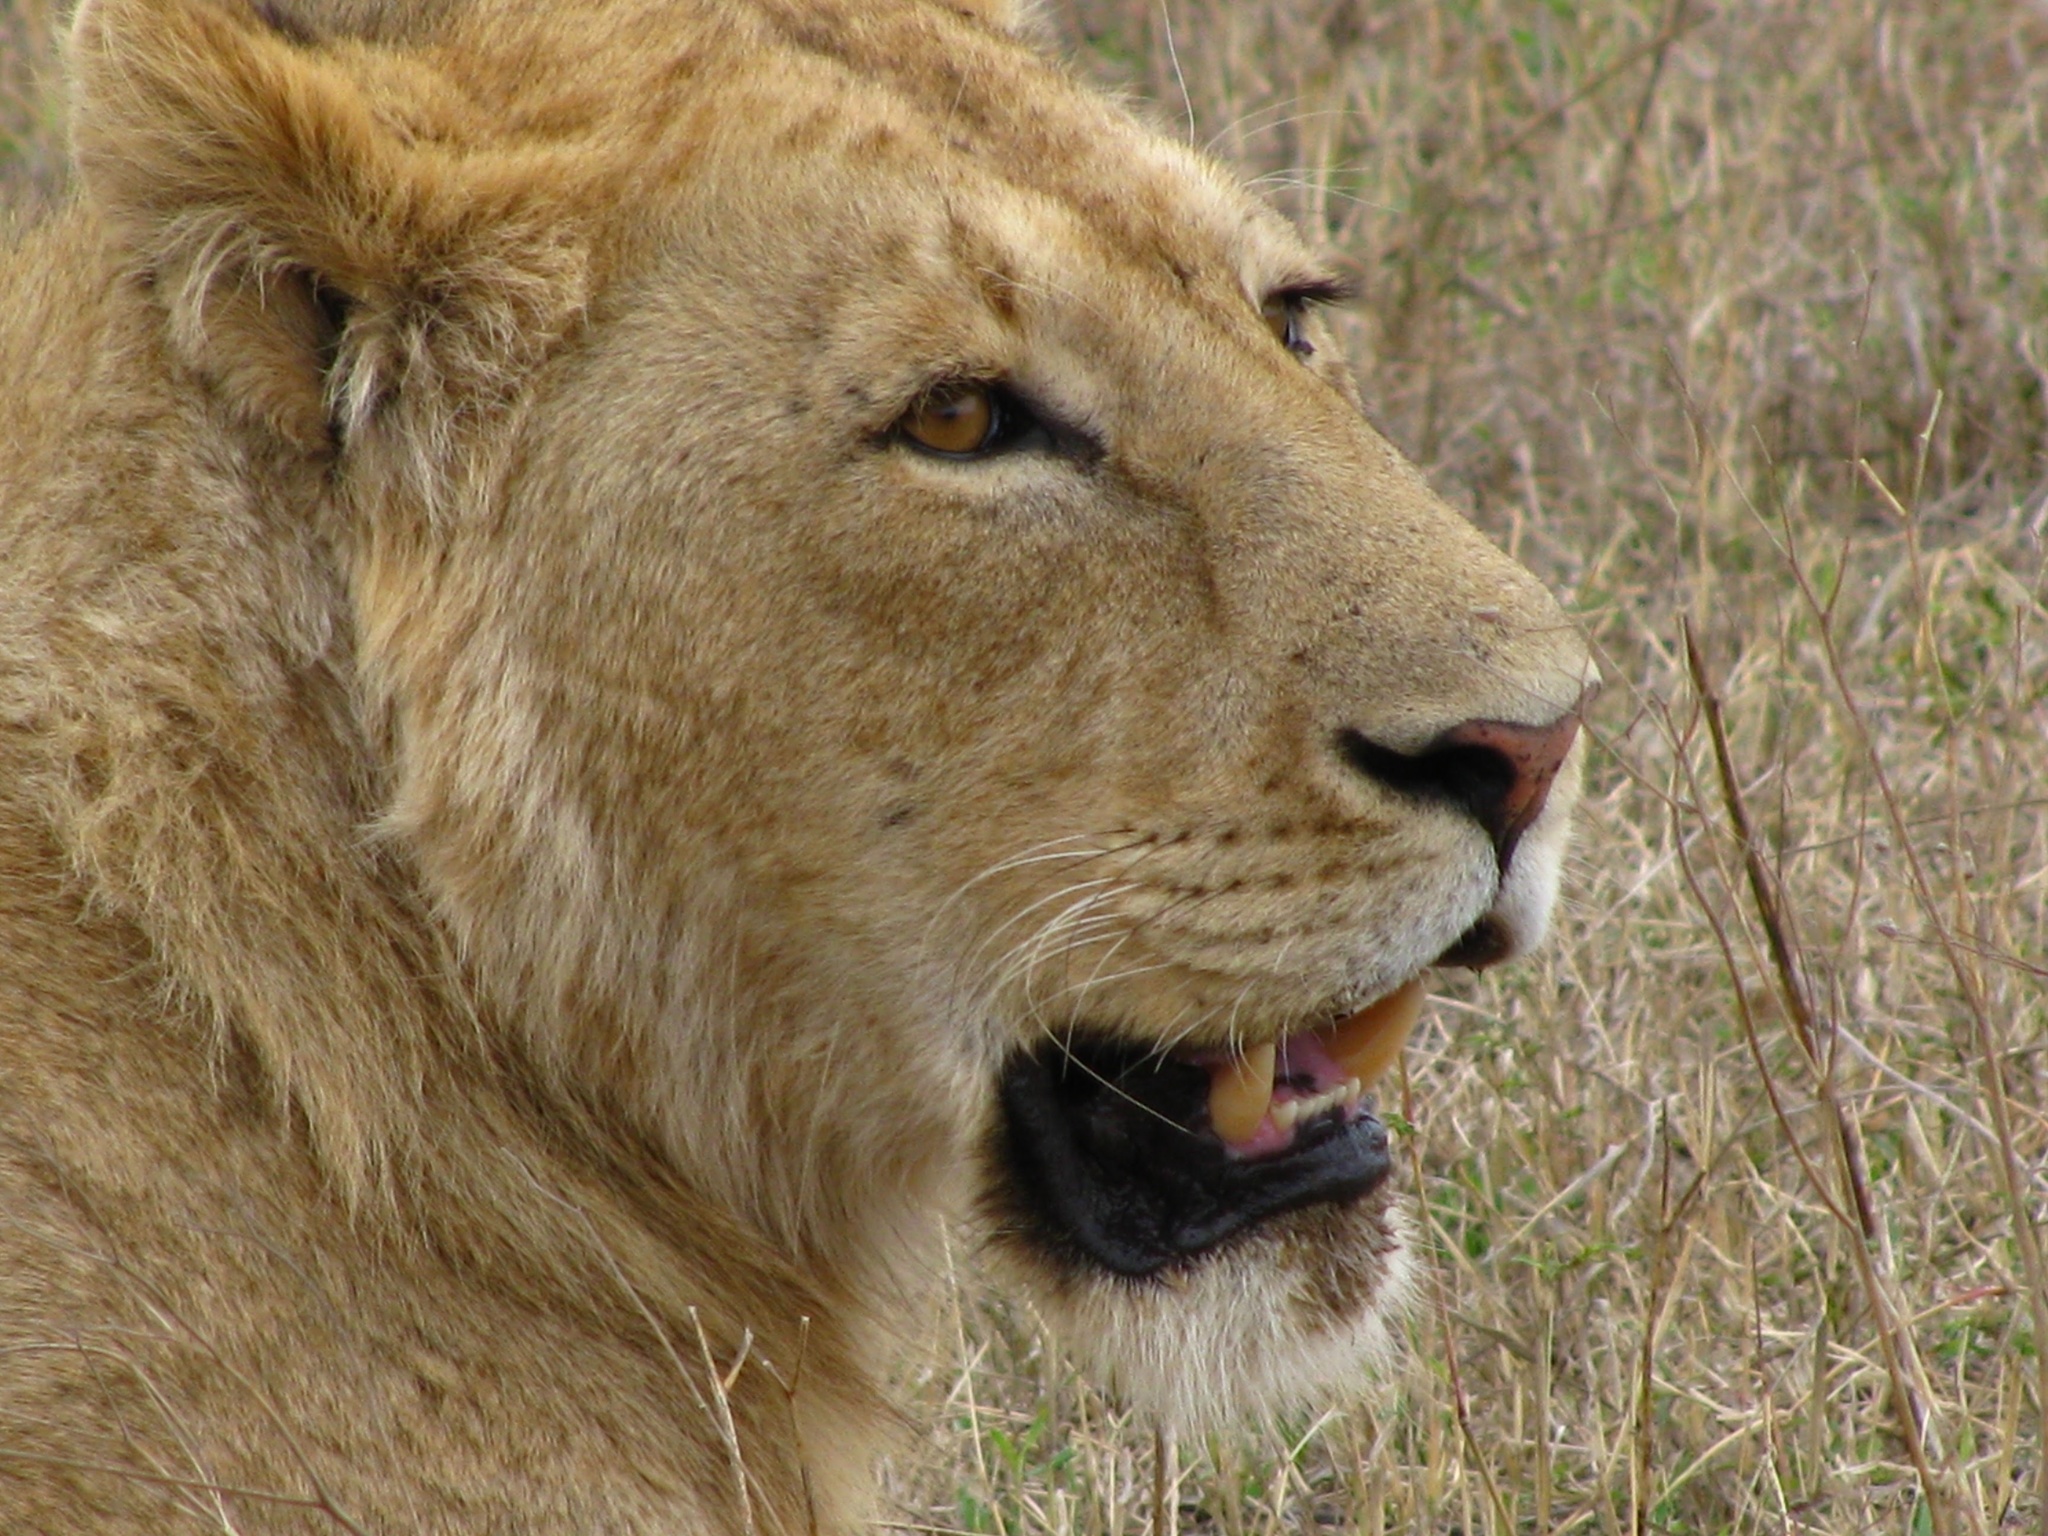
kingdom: Animalia
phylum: Chordata
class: Mammalia
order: Carnivora
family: Felidae
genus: Panthera
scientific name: Panthera leo
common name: Lion
